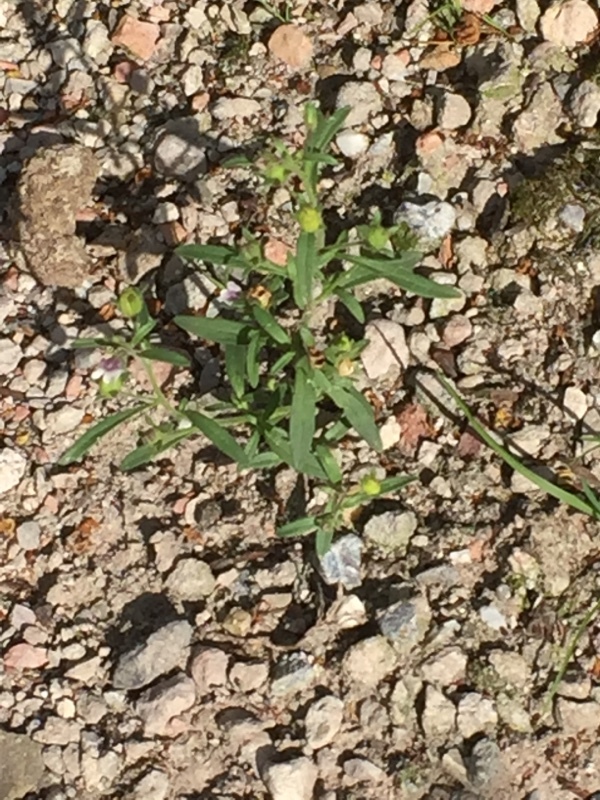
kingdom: Plantae
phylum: Tracheophyta
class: Magnoliopsida
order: Lamiales
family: Plantaginaceae
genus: Chaenorhinum
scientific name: Chaenorhinum minus
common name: Dwarf snapdragon
